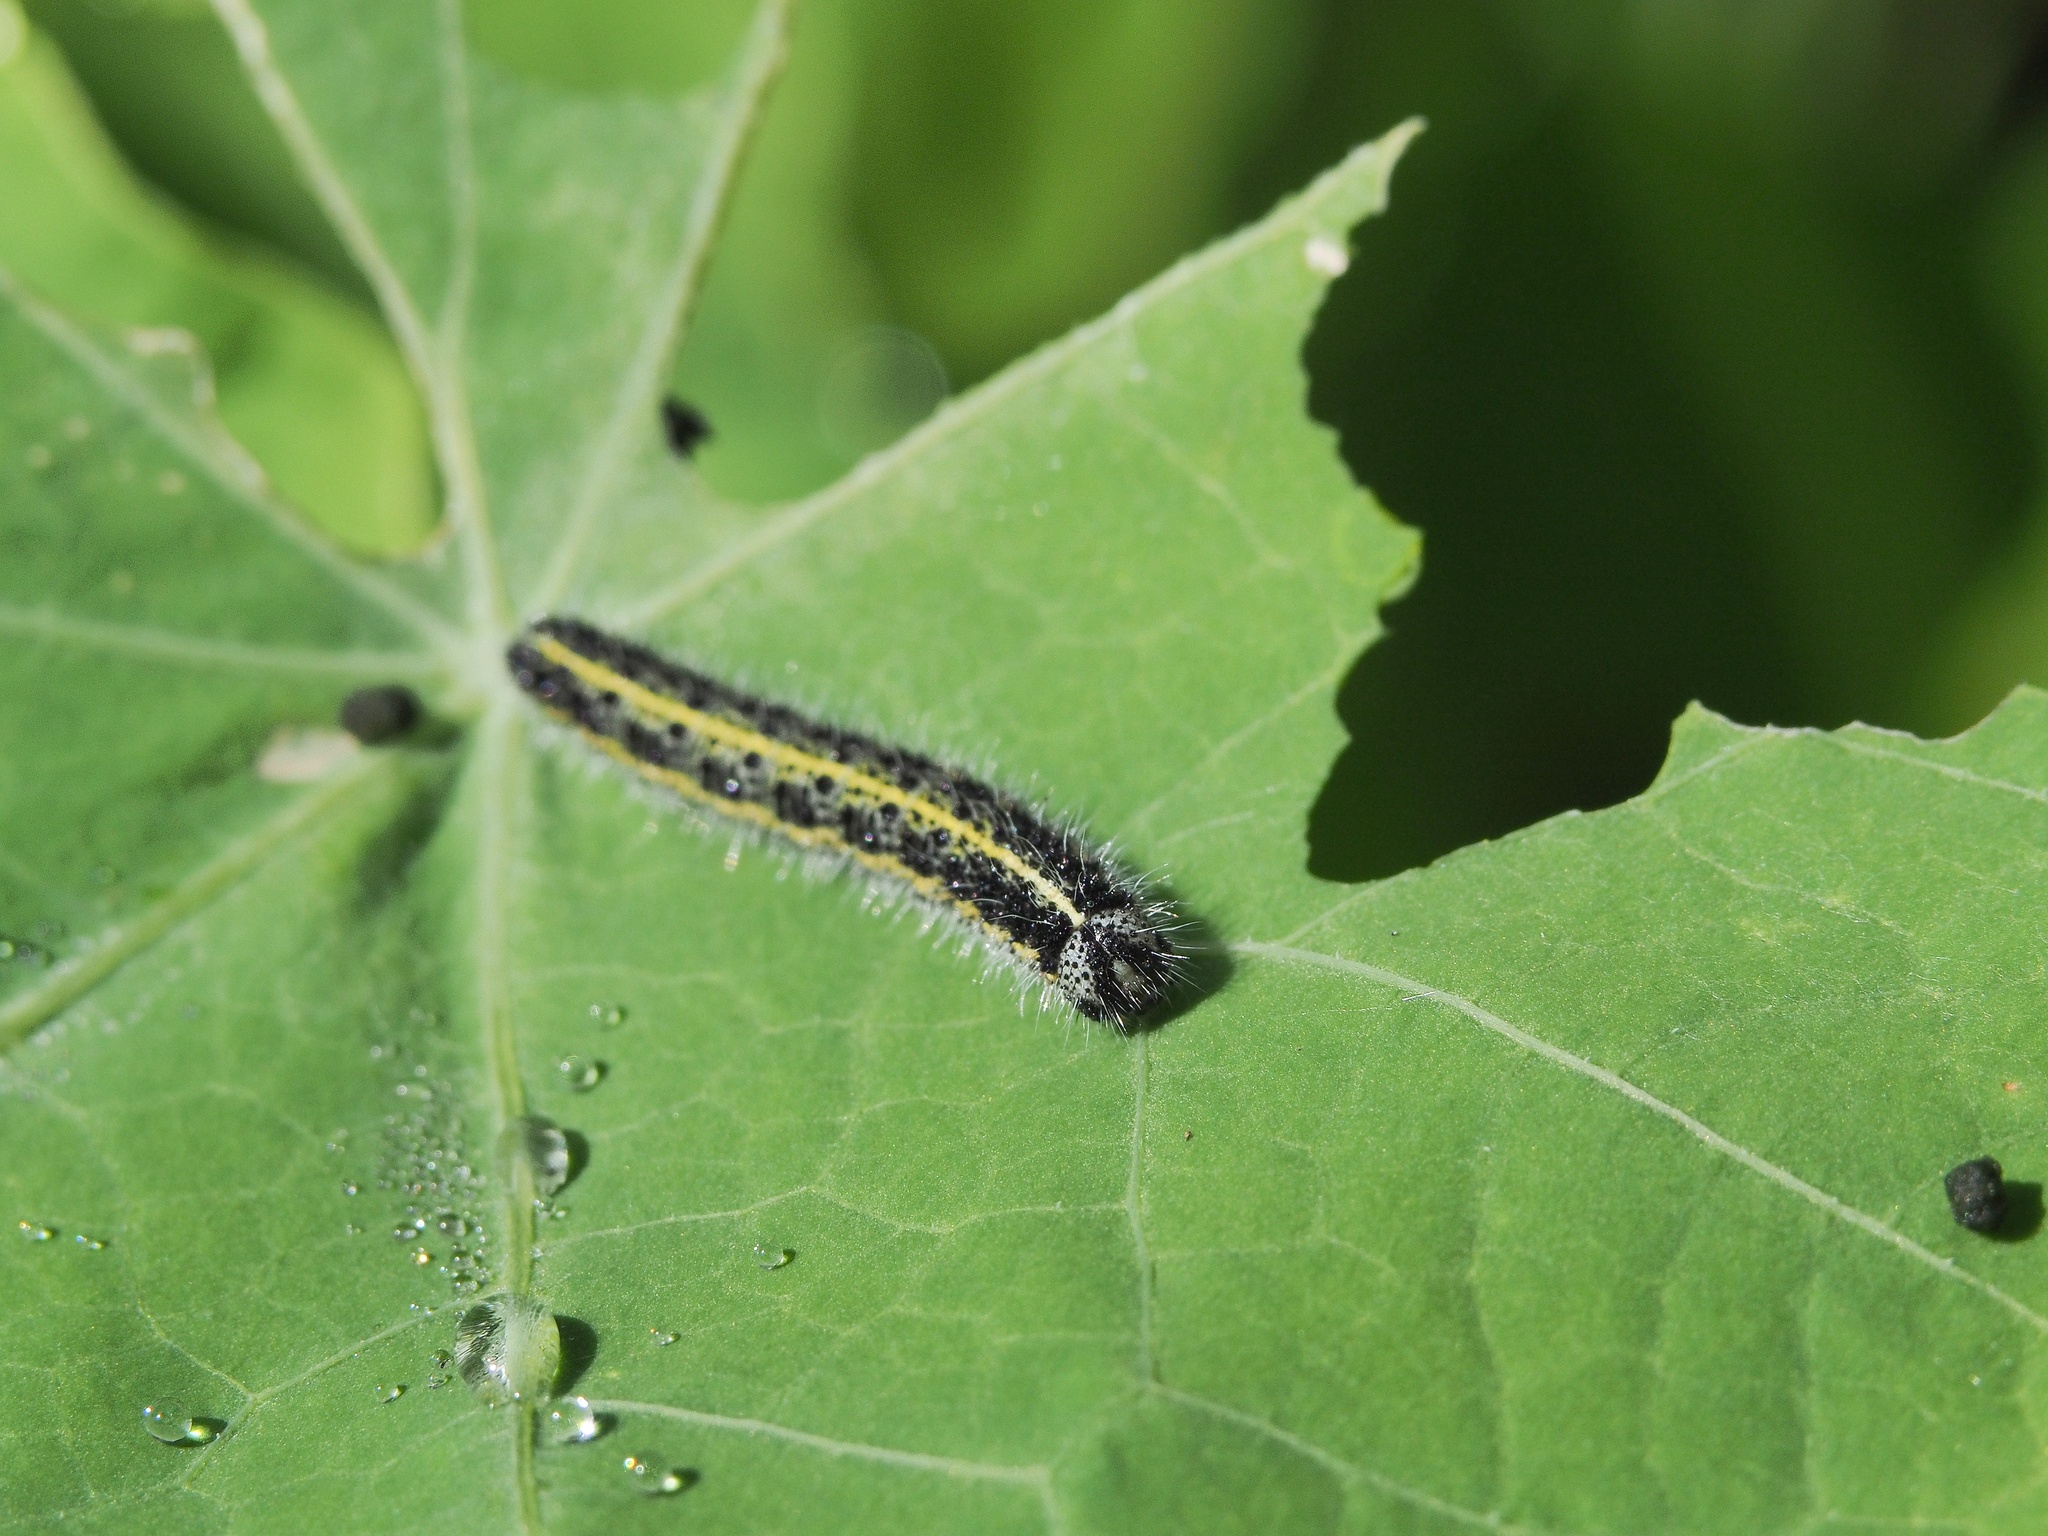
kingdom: Animalia
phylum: Arthropoda
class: Insecta
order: Lepidoptera
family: Pieridae
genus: Pieris
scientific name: Pieris brassicae
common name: Large white
